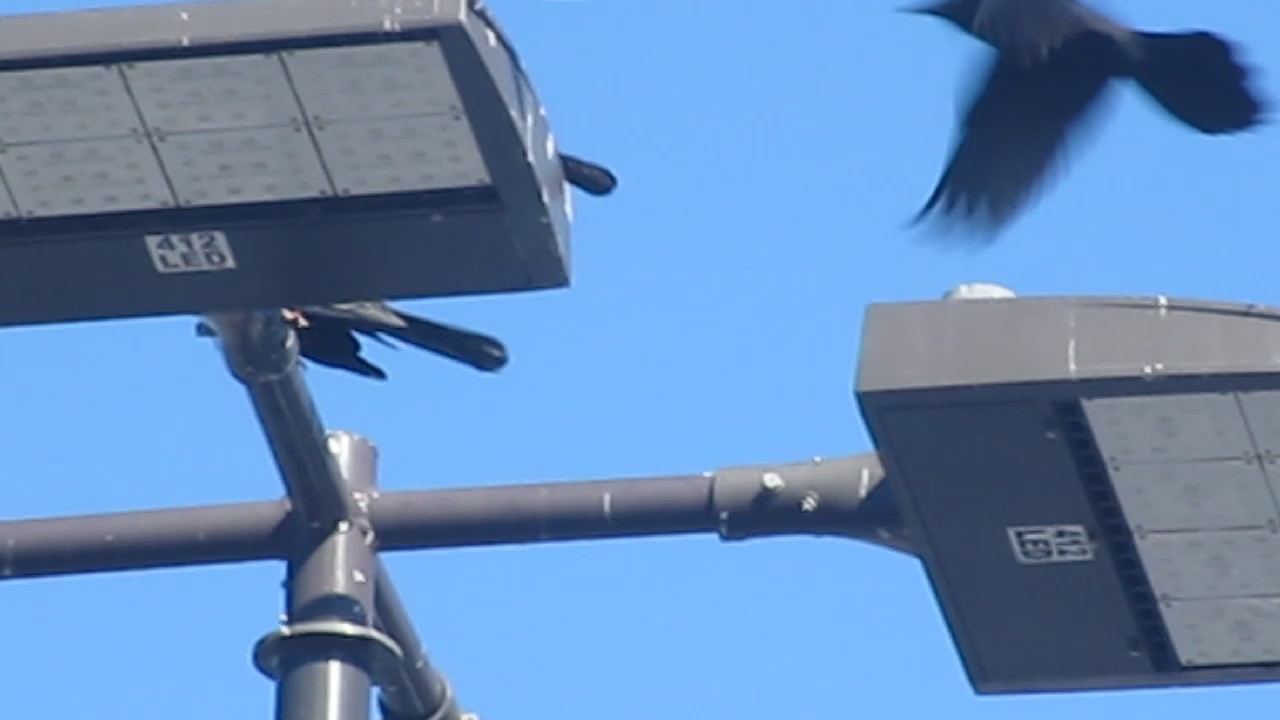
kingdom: Animalia
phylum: Chordata
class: Aves
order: Passeriformes
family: Icteridae
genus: Quiscalus
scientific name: Quiscalus major
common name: Boat-tailed grackle
